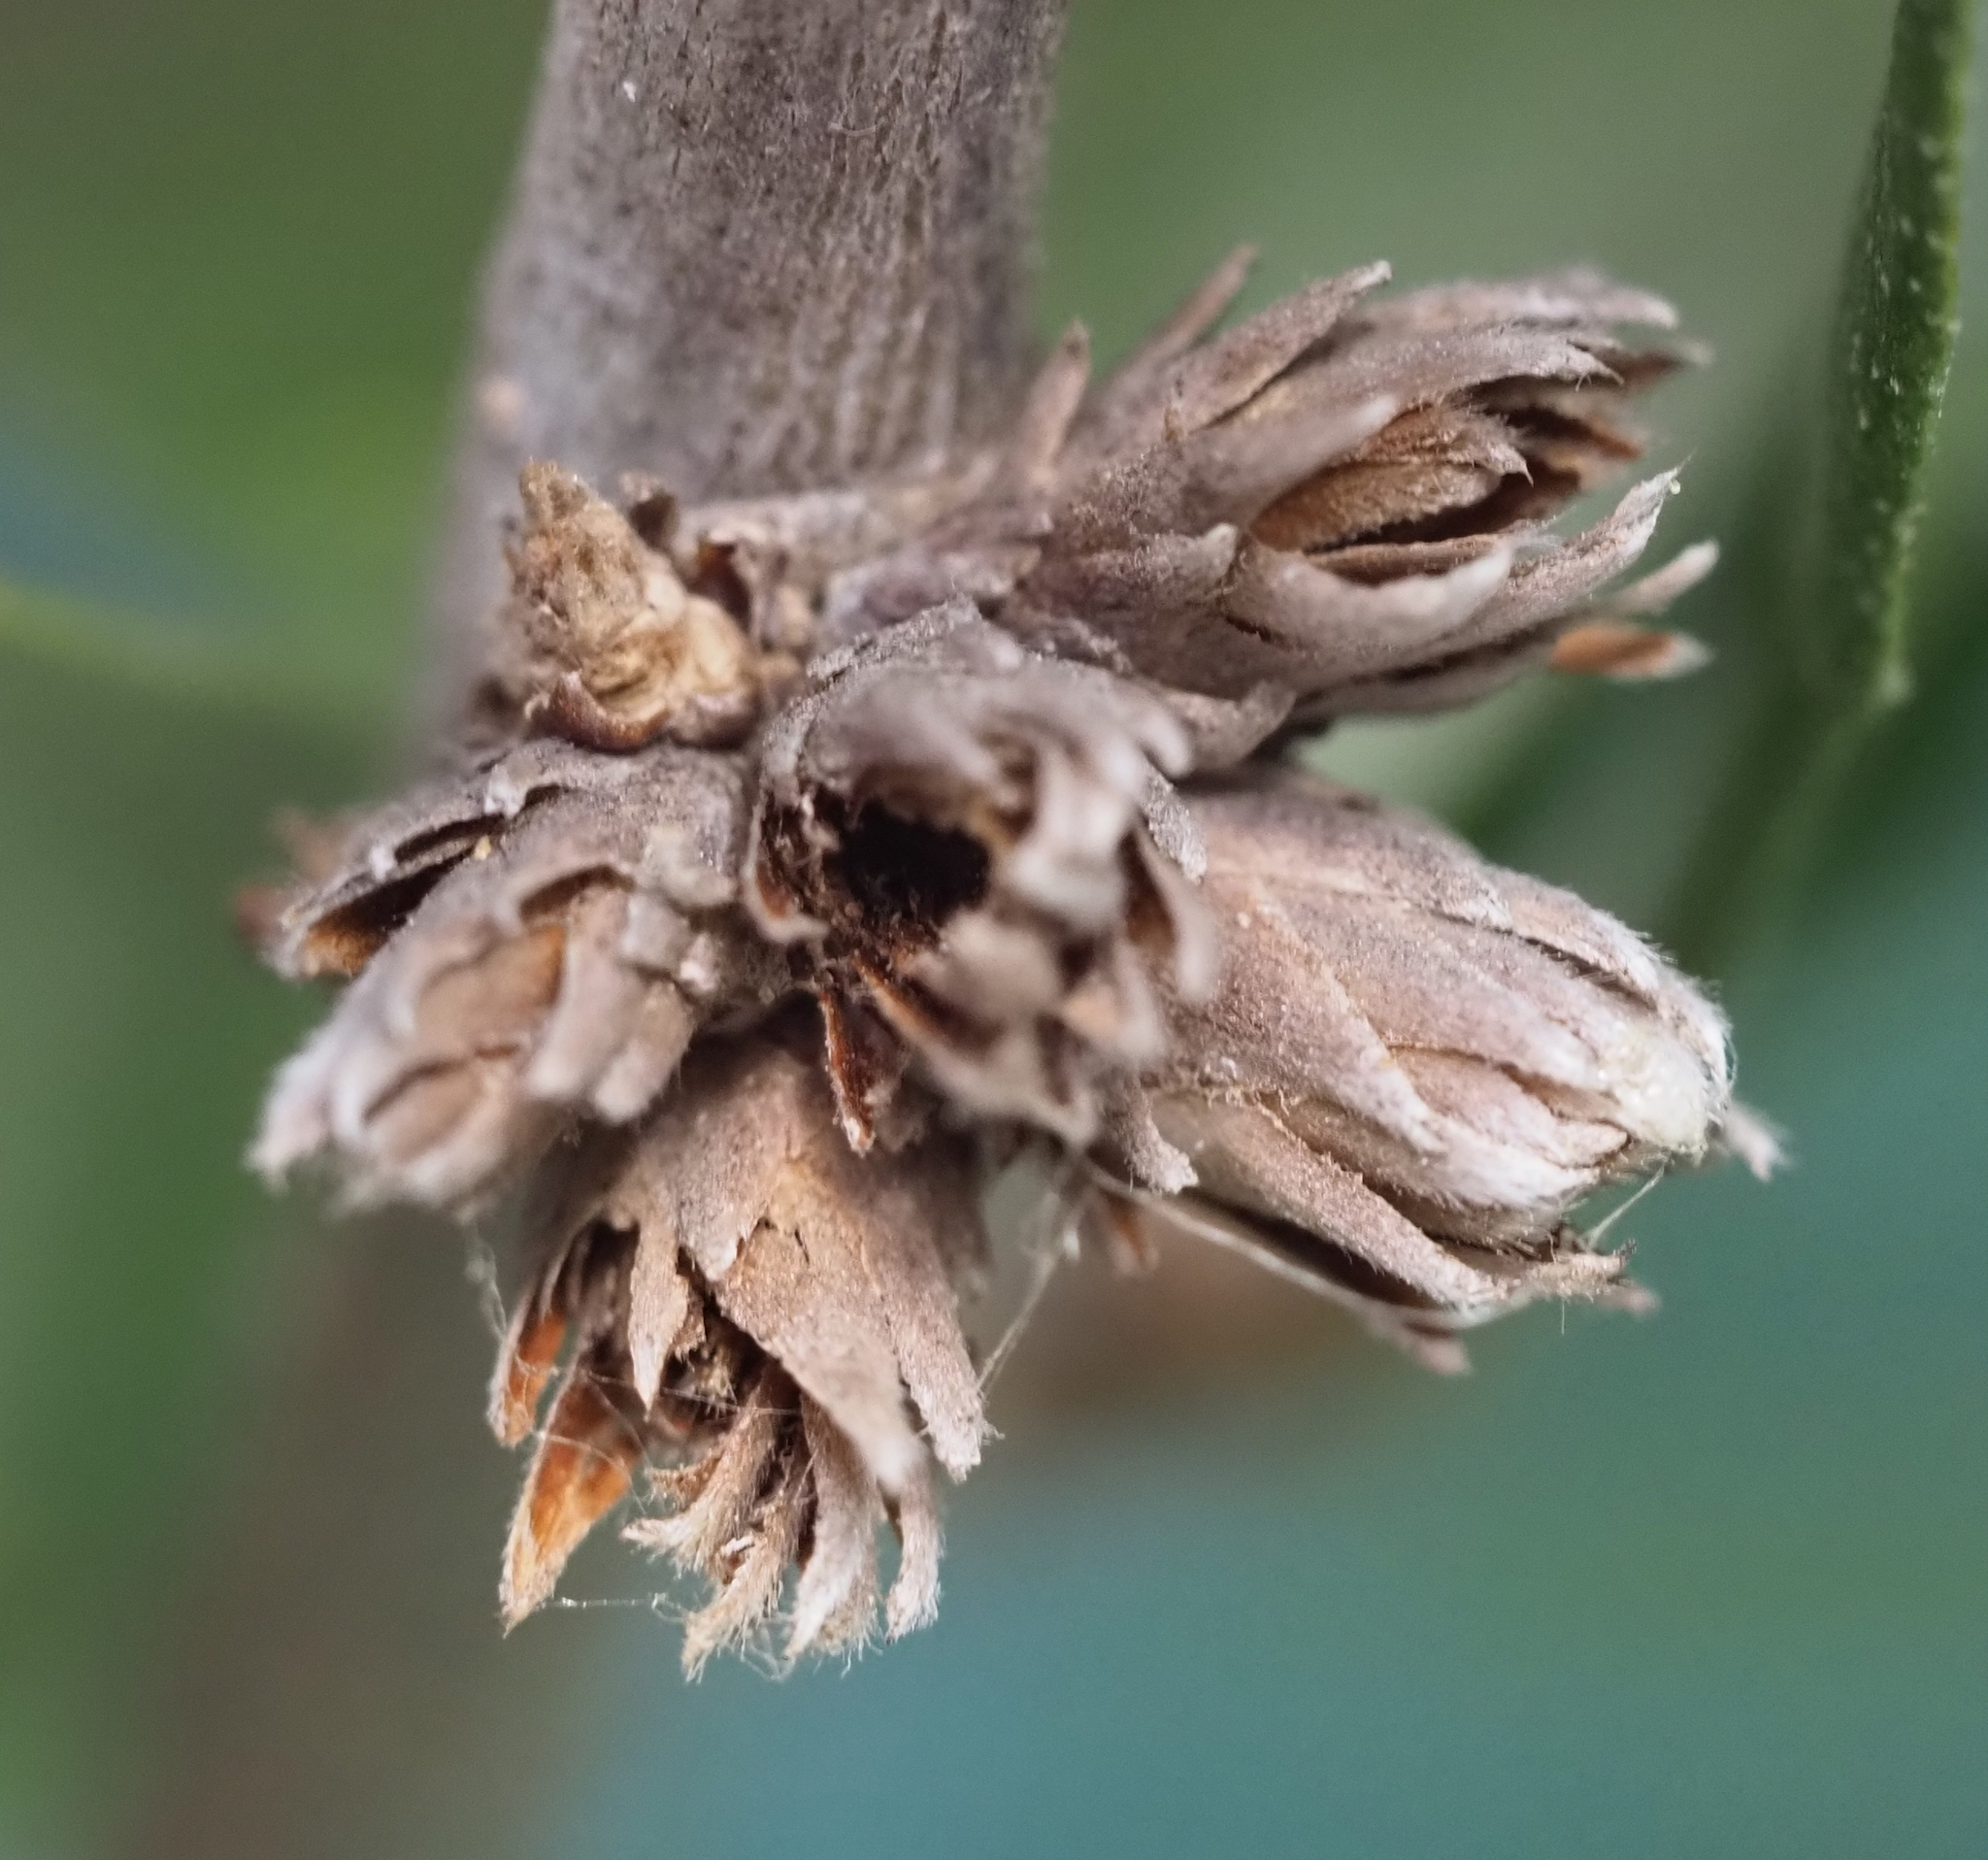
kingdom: Animalia
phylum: Arthropoda
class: Insecta
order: Diptera
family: Cecidomyiidae
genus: Arnoldiola
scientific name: Arnoldiola atra
